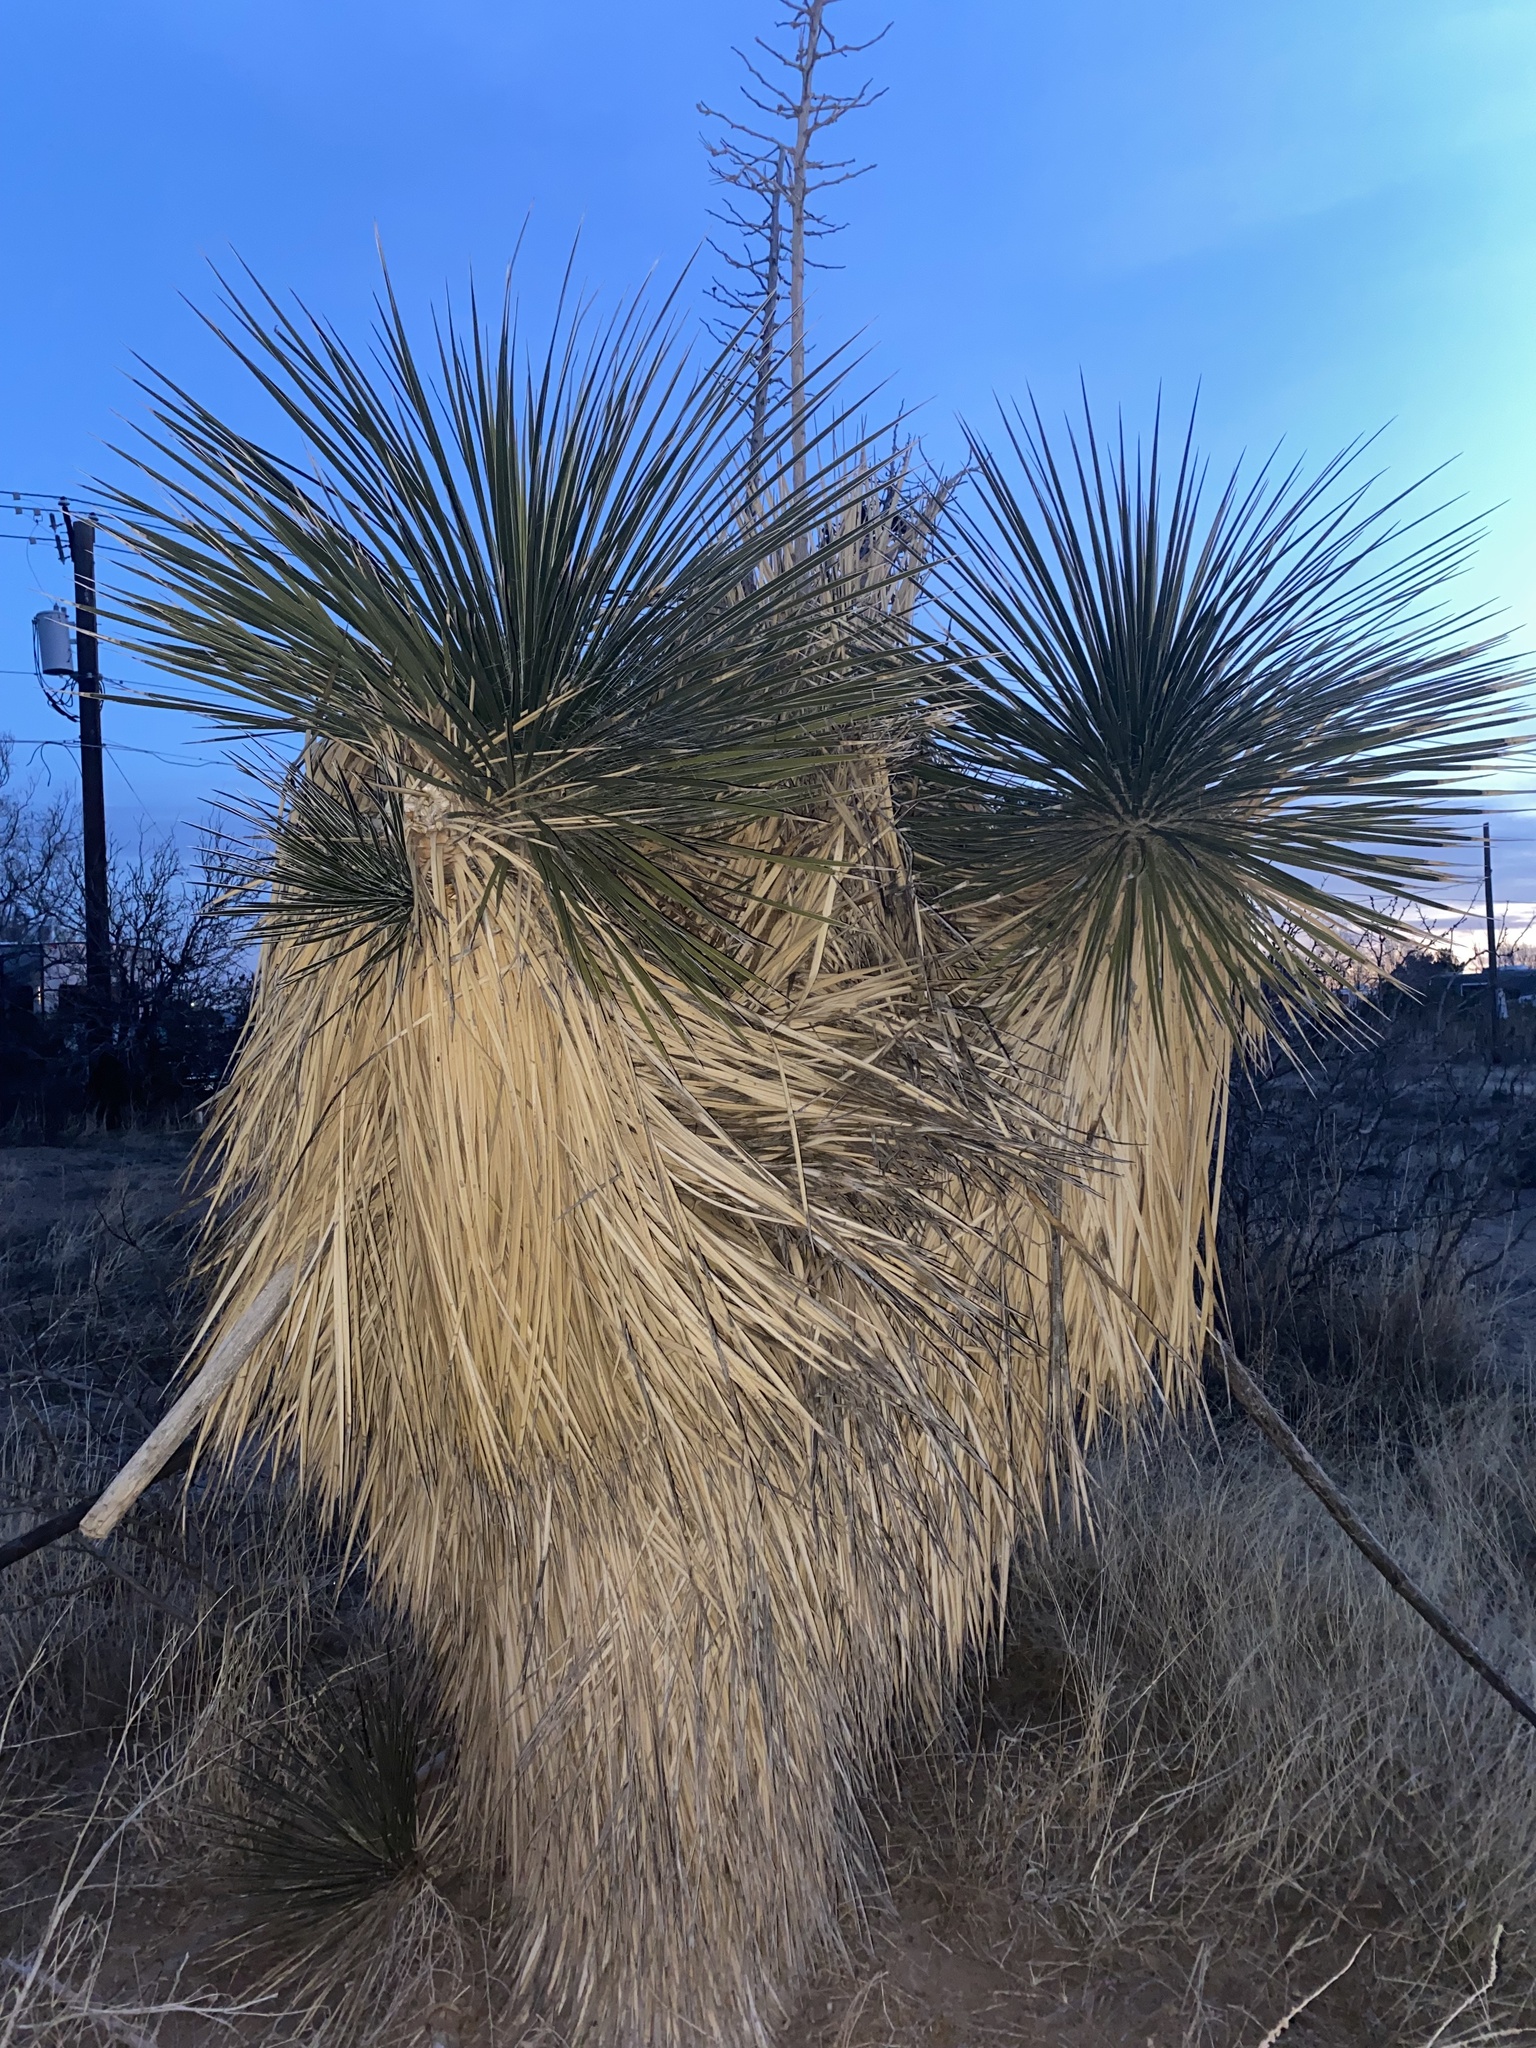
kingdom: Plantae
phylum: Tracheophyta
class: Liliopsida
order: Asparagales
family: Asparagaceae
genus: Yucca
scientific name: Yucca elata
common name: Palmella
